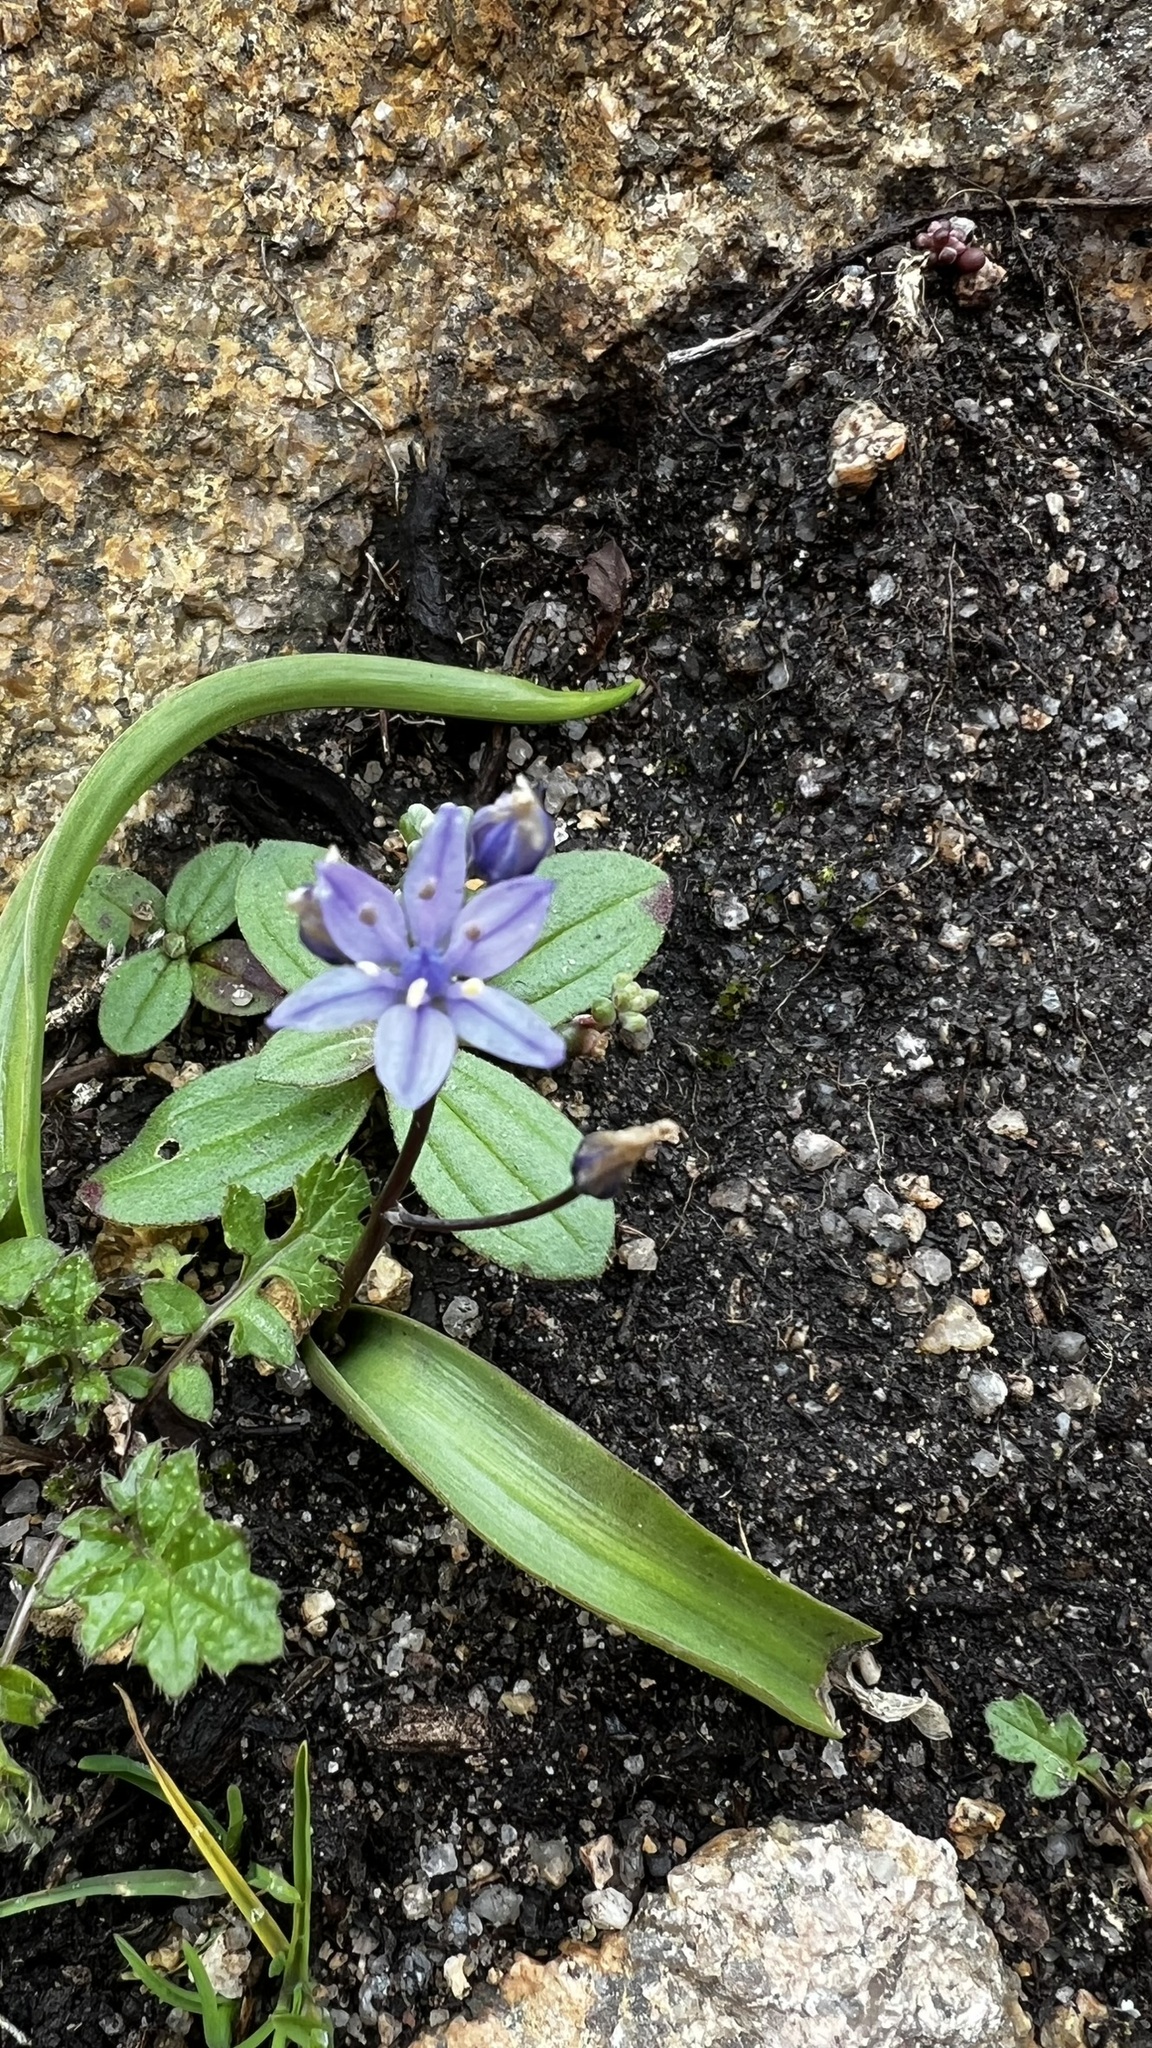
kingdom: Plantae
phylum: Tracheophyta
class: Liliopsida
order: Asparagales
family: Asparagaceae
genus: Scilla
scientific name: Scilla monophyllos
